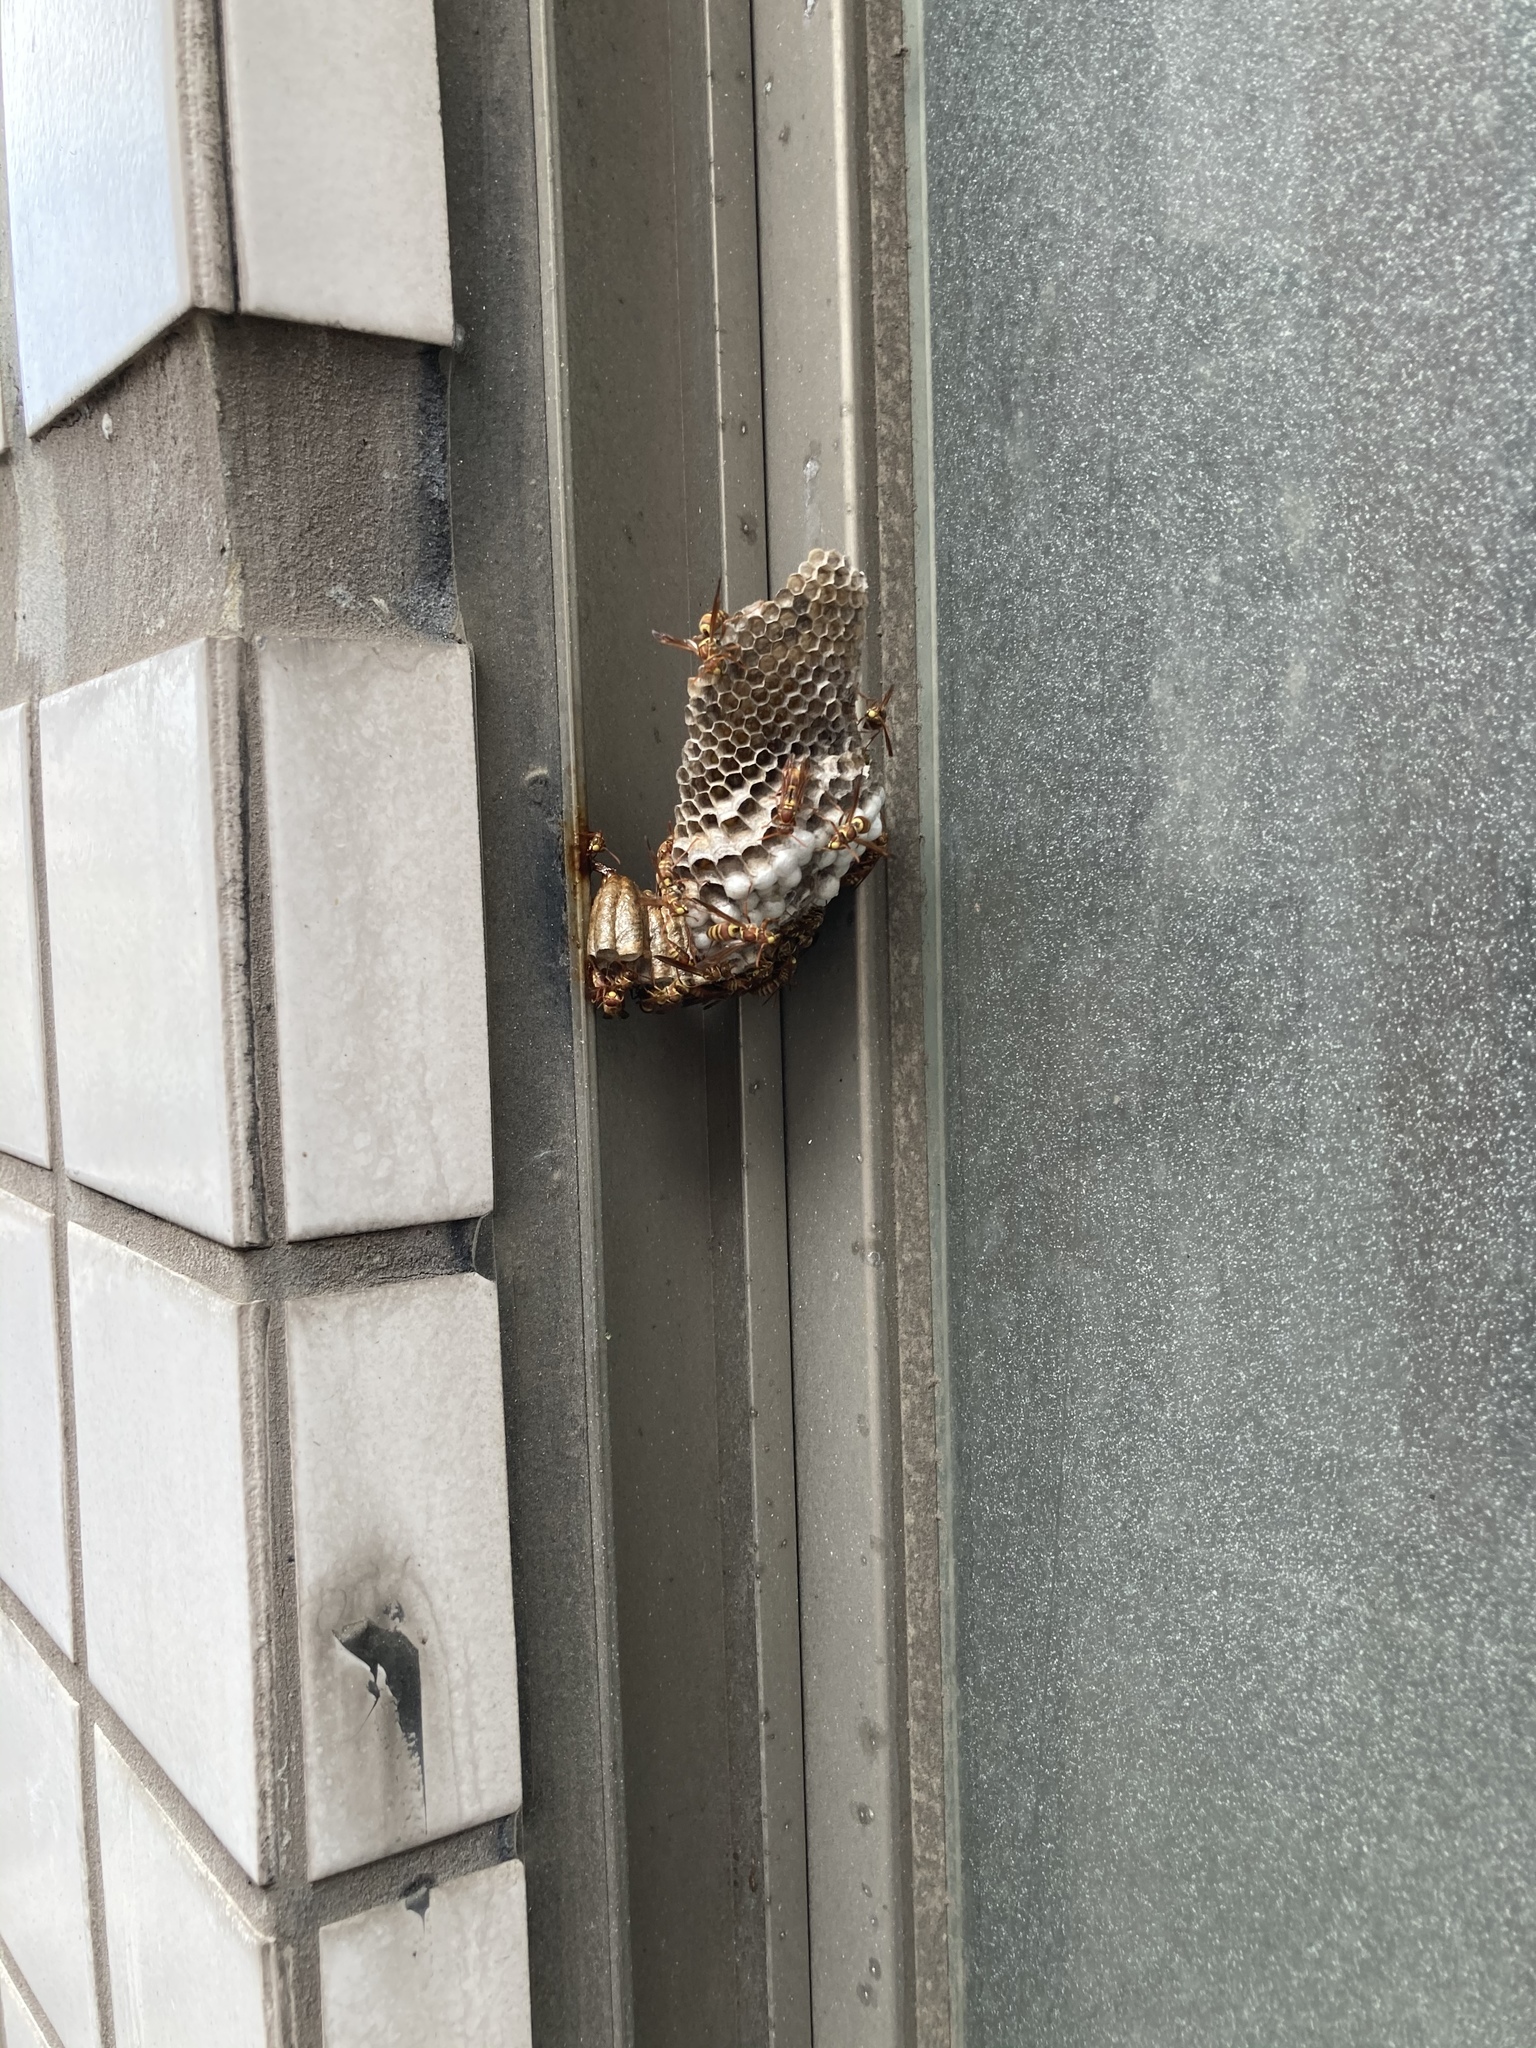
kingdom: Animalia
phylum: Arthropoda
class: Insecta
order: Hymenoptera
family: Eumenidae
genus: Polistes
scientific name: Polistes shirakii
